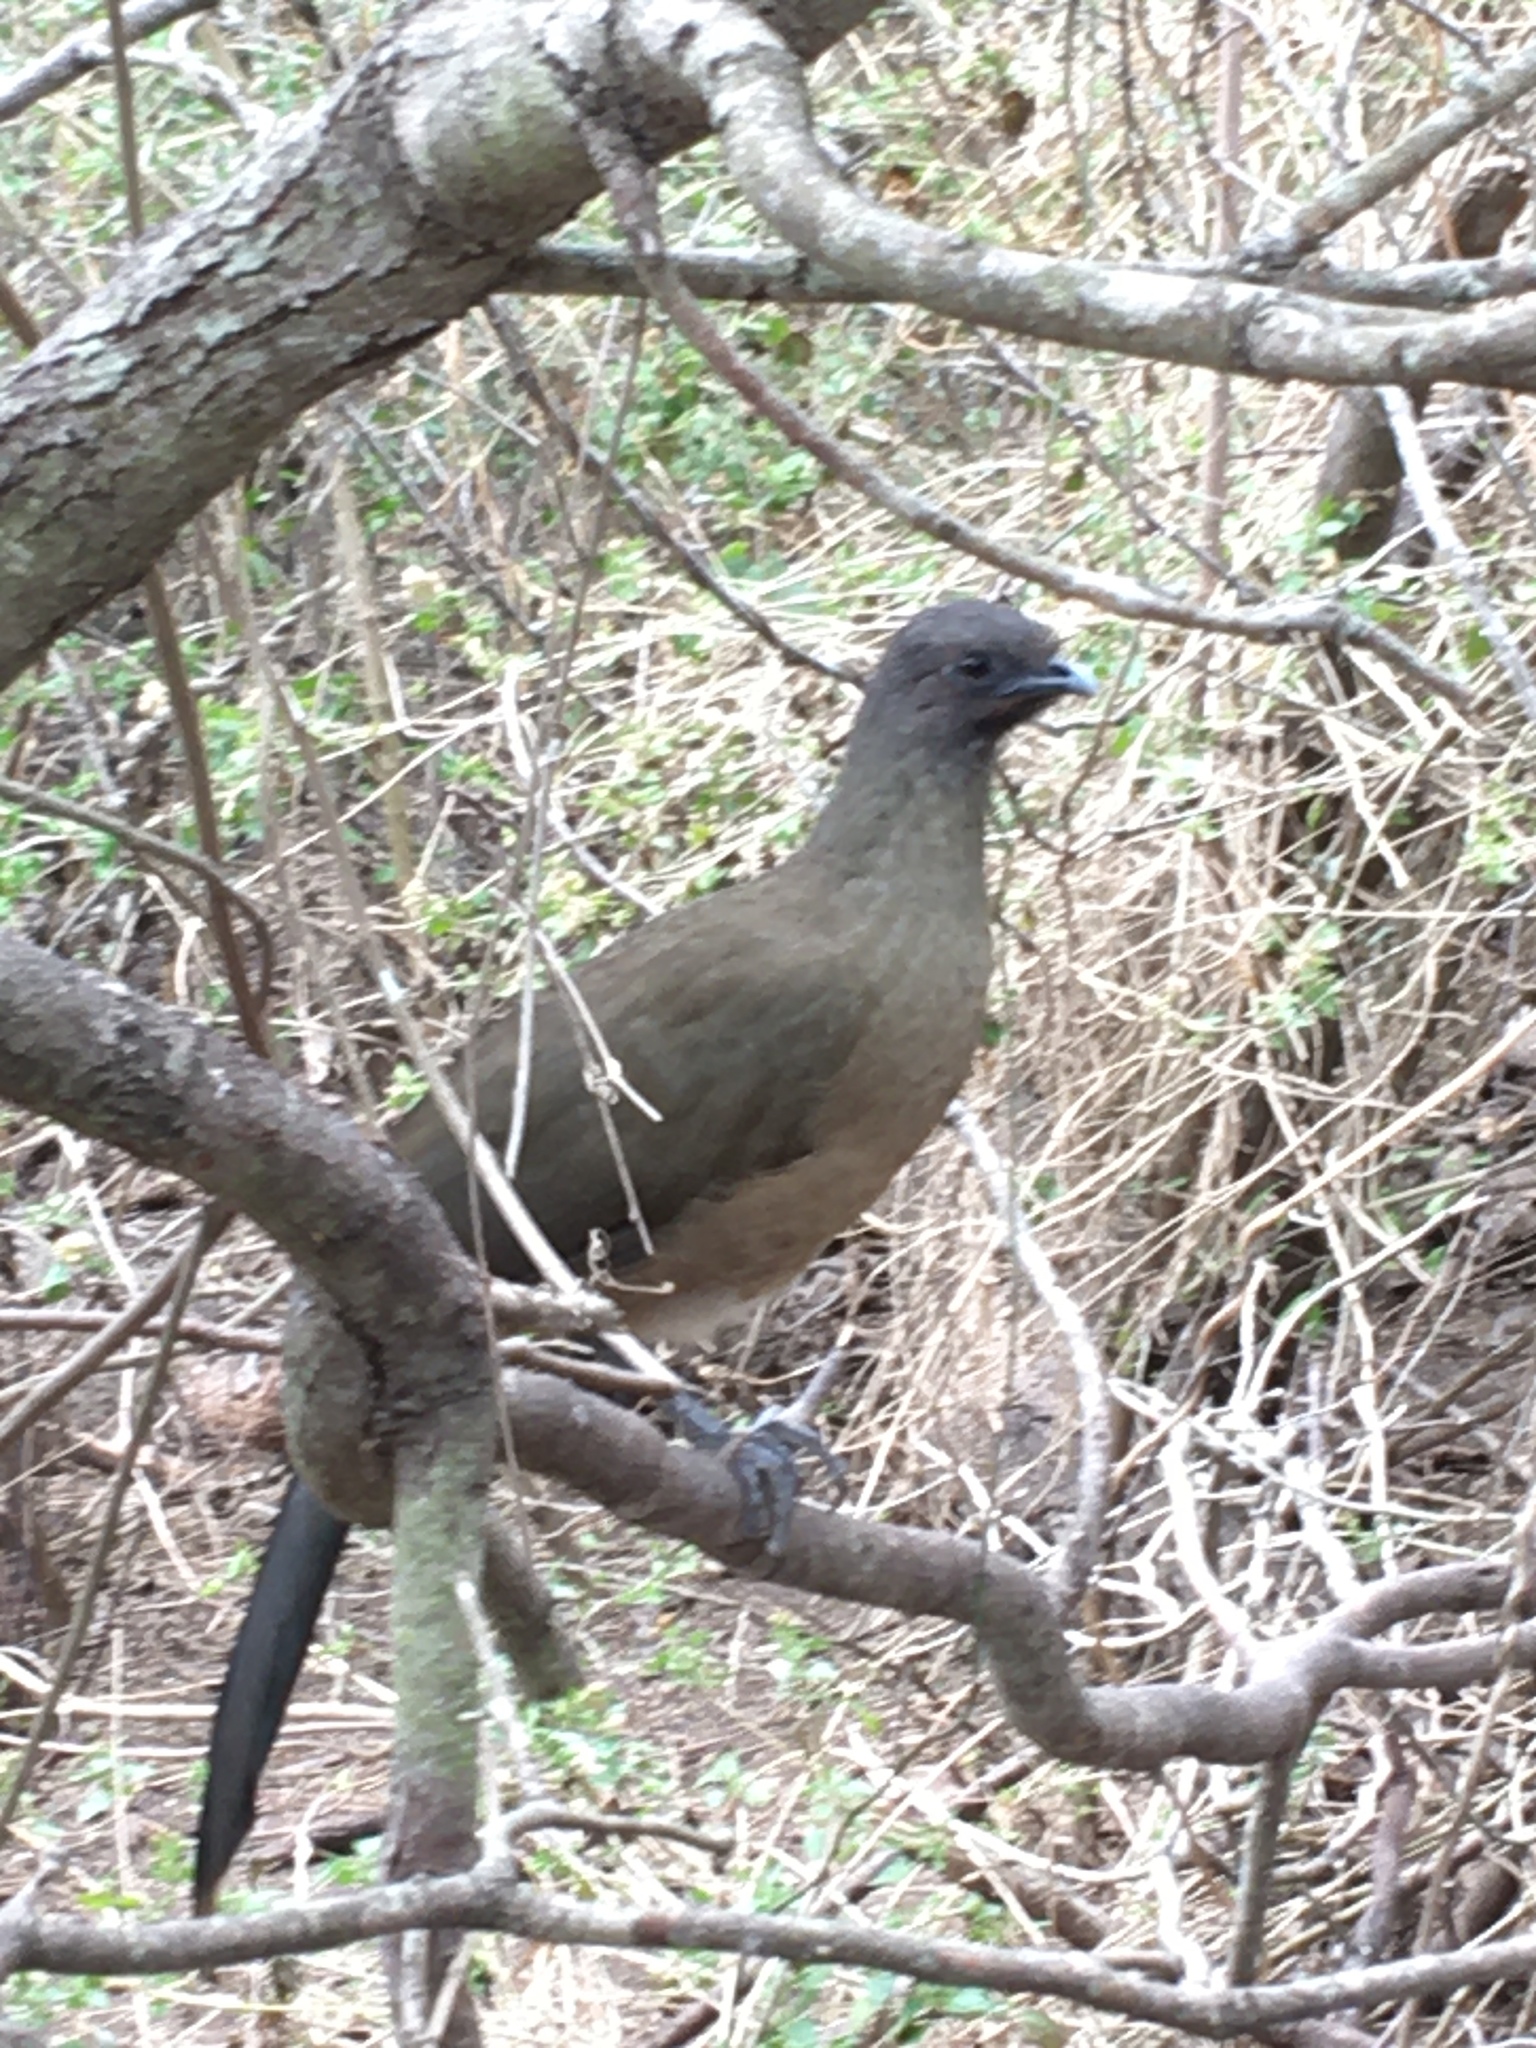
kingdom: Animalia
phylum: Chordata
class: Aves
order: Galliformes
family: Cracidae
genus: Ortalis
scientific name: Ortalis vetula
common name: Plain chachalaca
